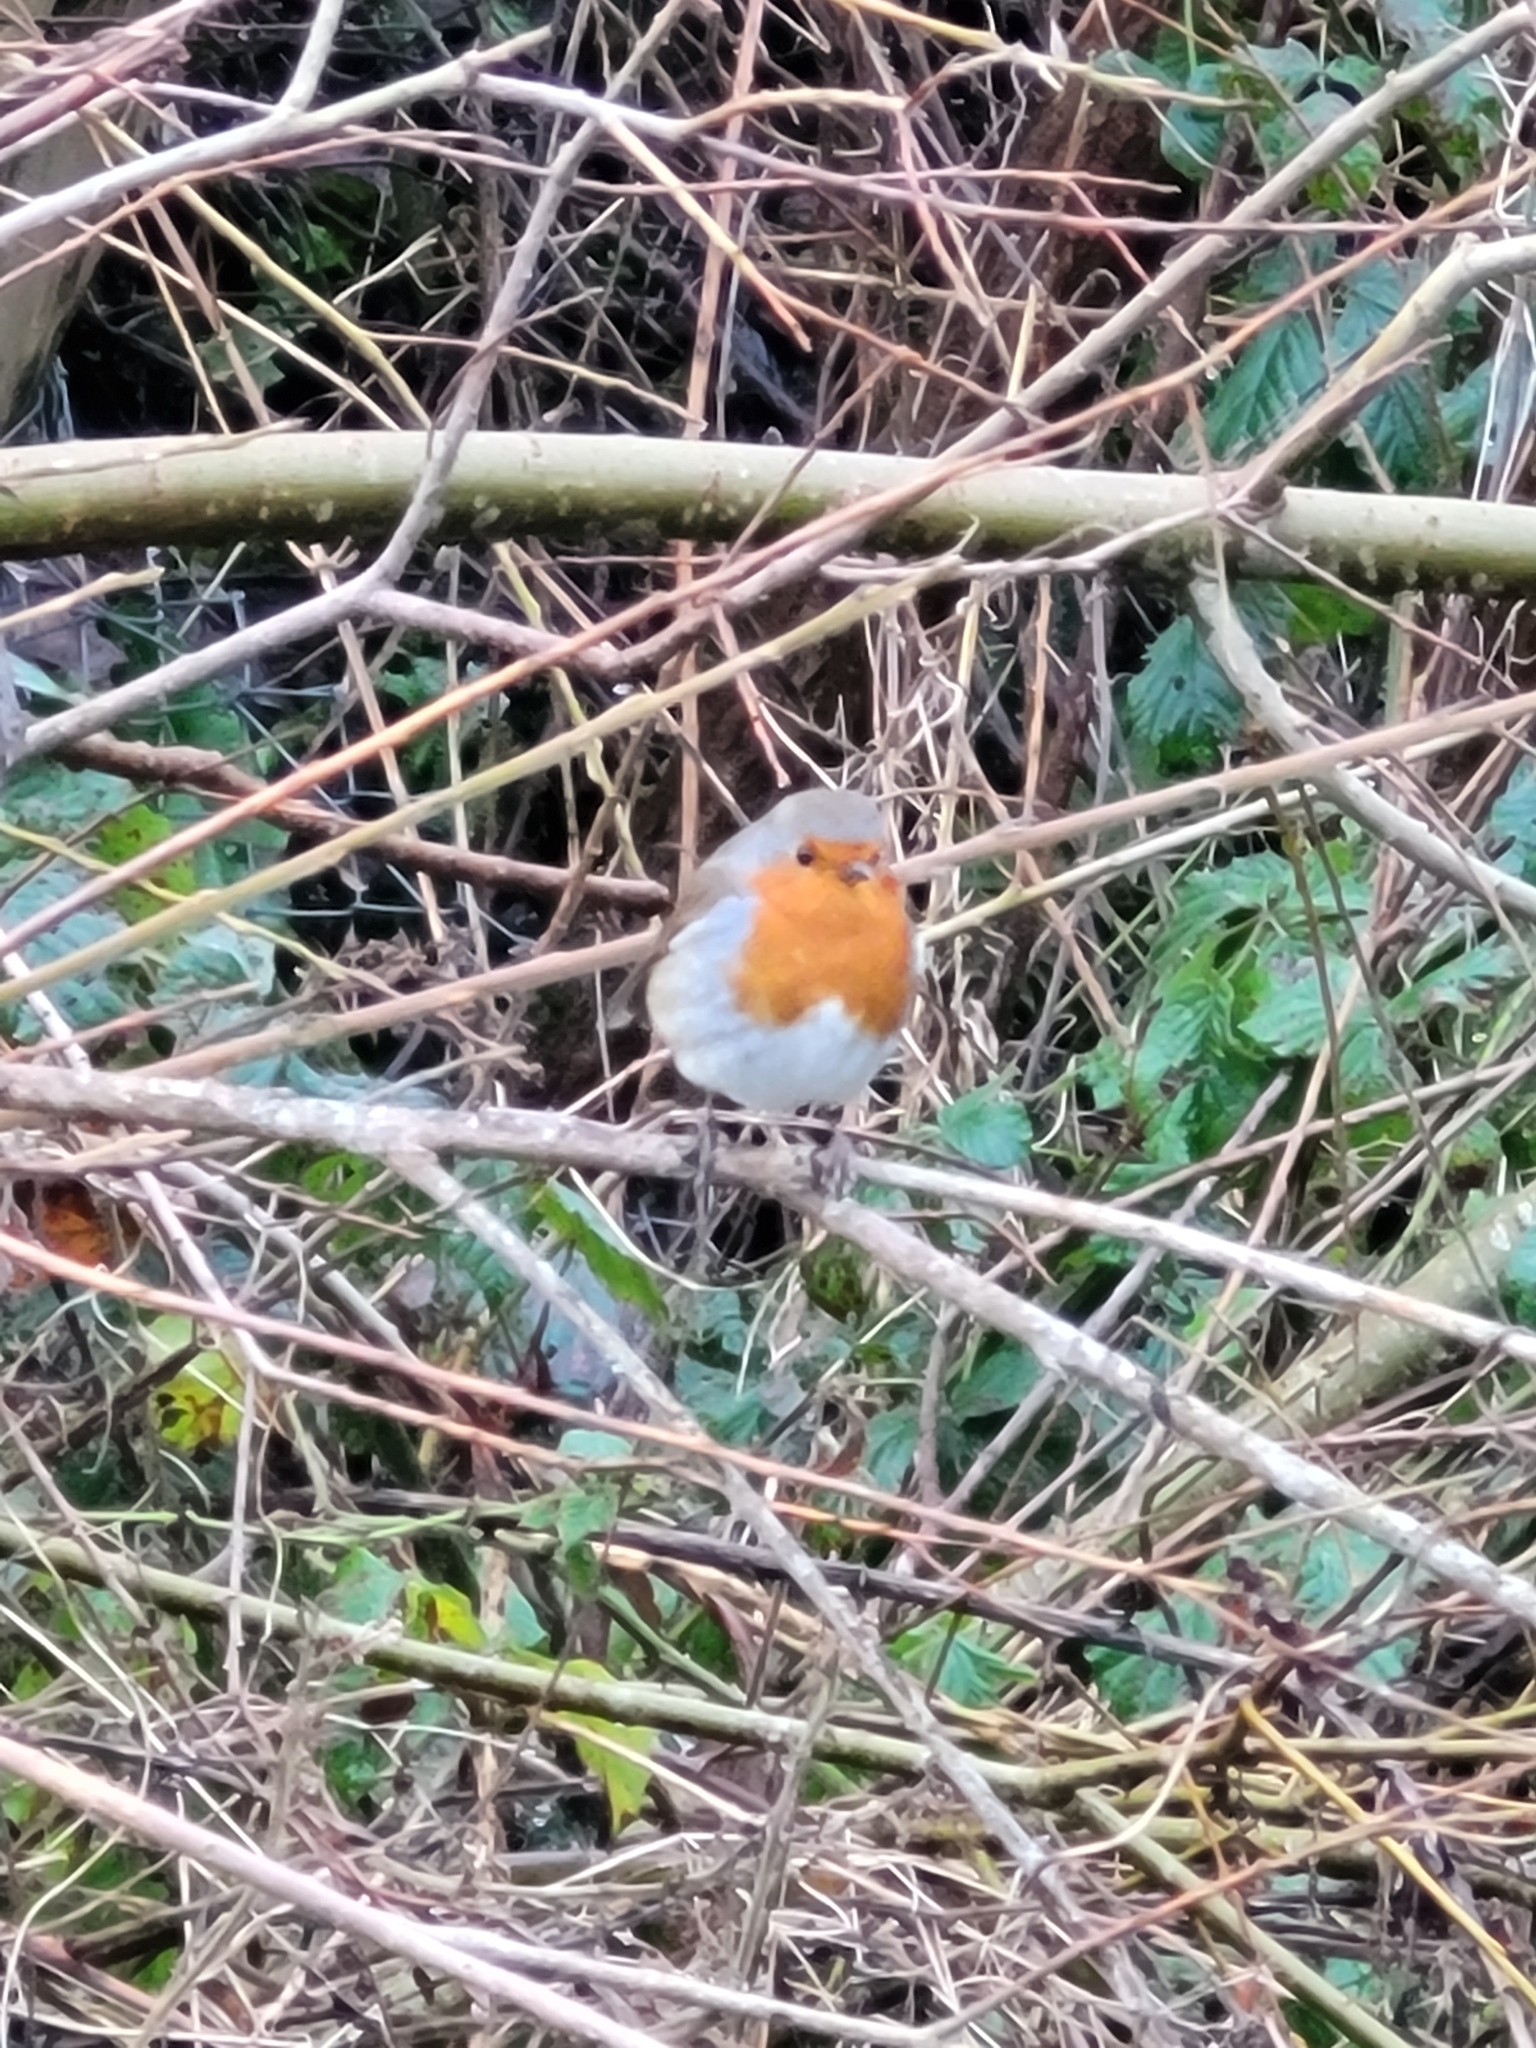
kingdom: Animalia
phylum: Chordata
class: Aves
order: Passeriformes
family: Muscicapidae
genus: Erithacus
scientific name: Erithacus rubecula
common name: European robin
